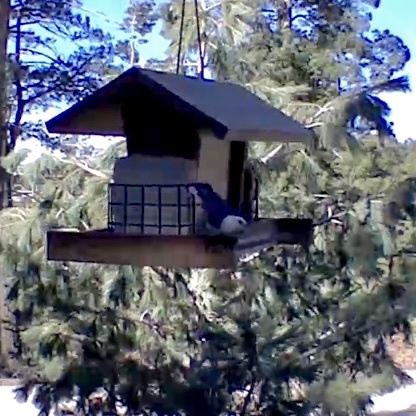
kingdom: Animalia
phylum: Chordata
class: Aves
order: Passeriformes
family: Sittidae
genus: Sitta
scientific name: Sitta carolinensis
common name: White-breasted nuthatch
